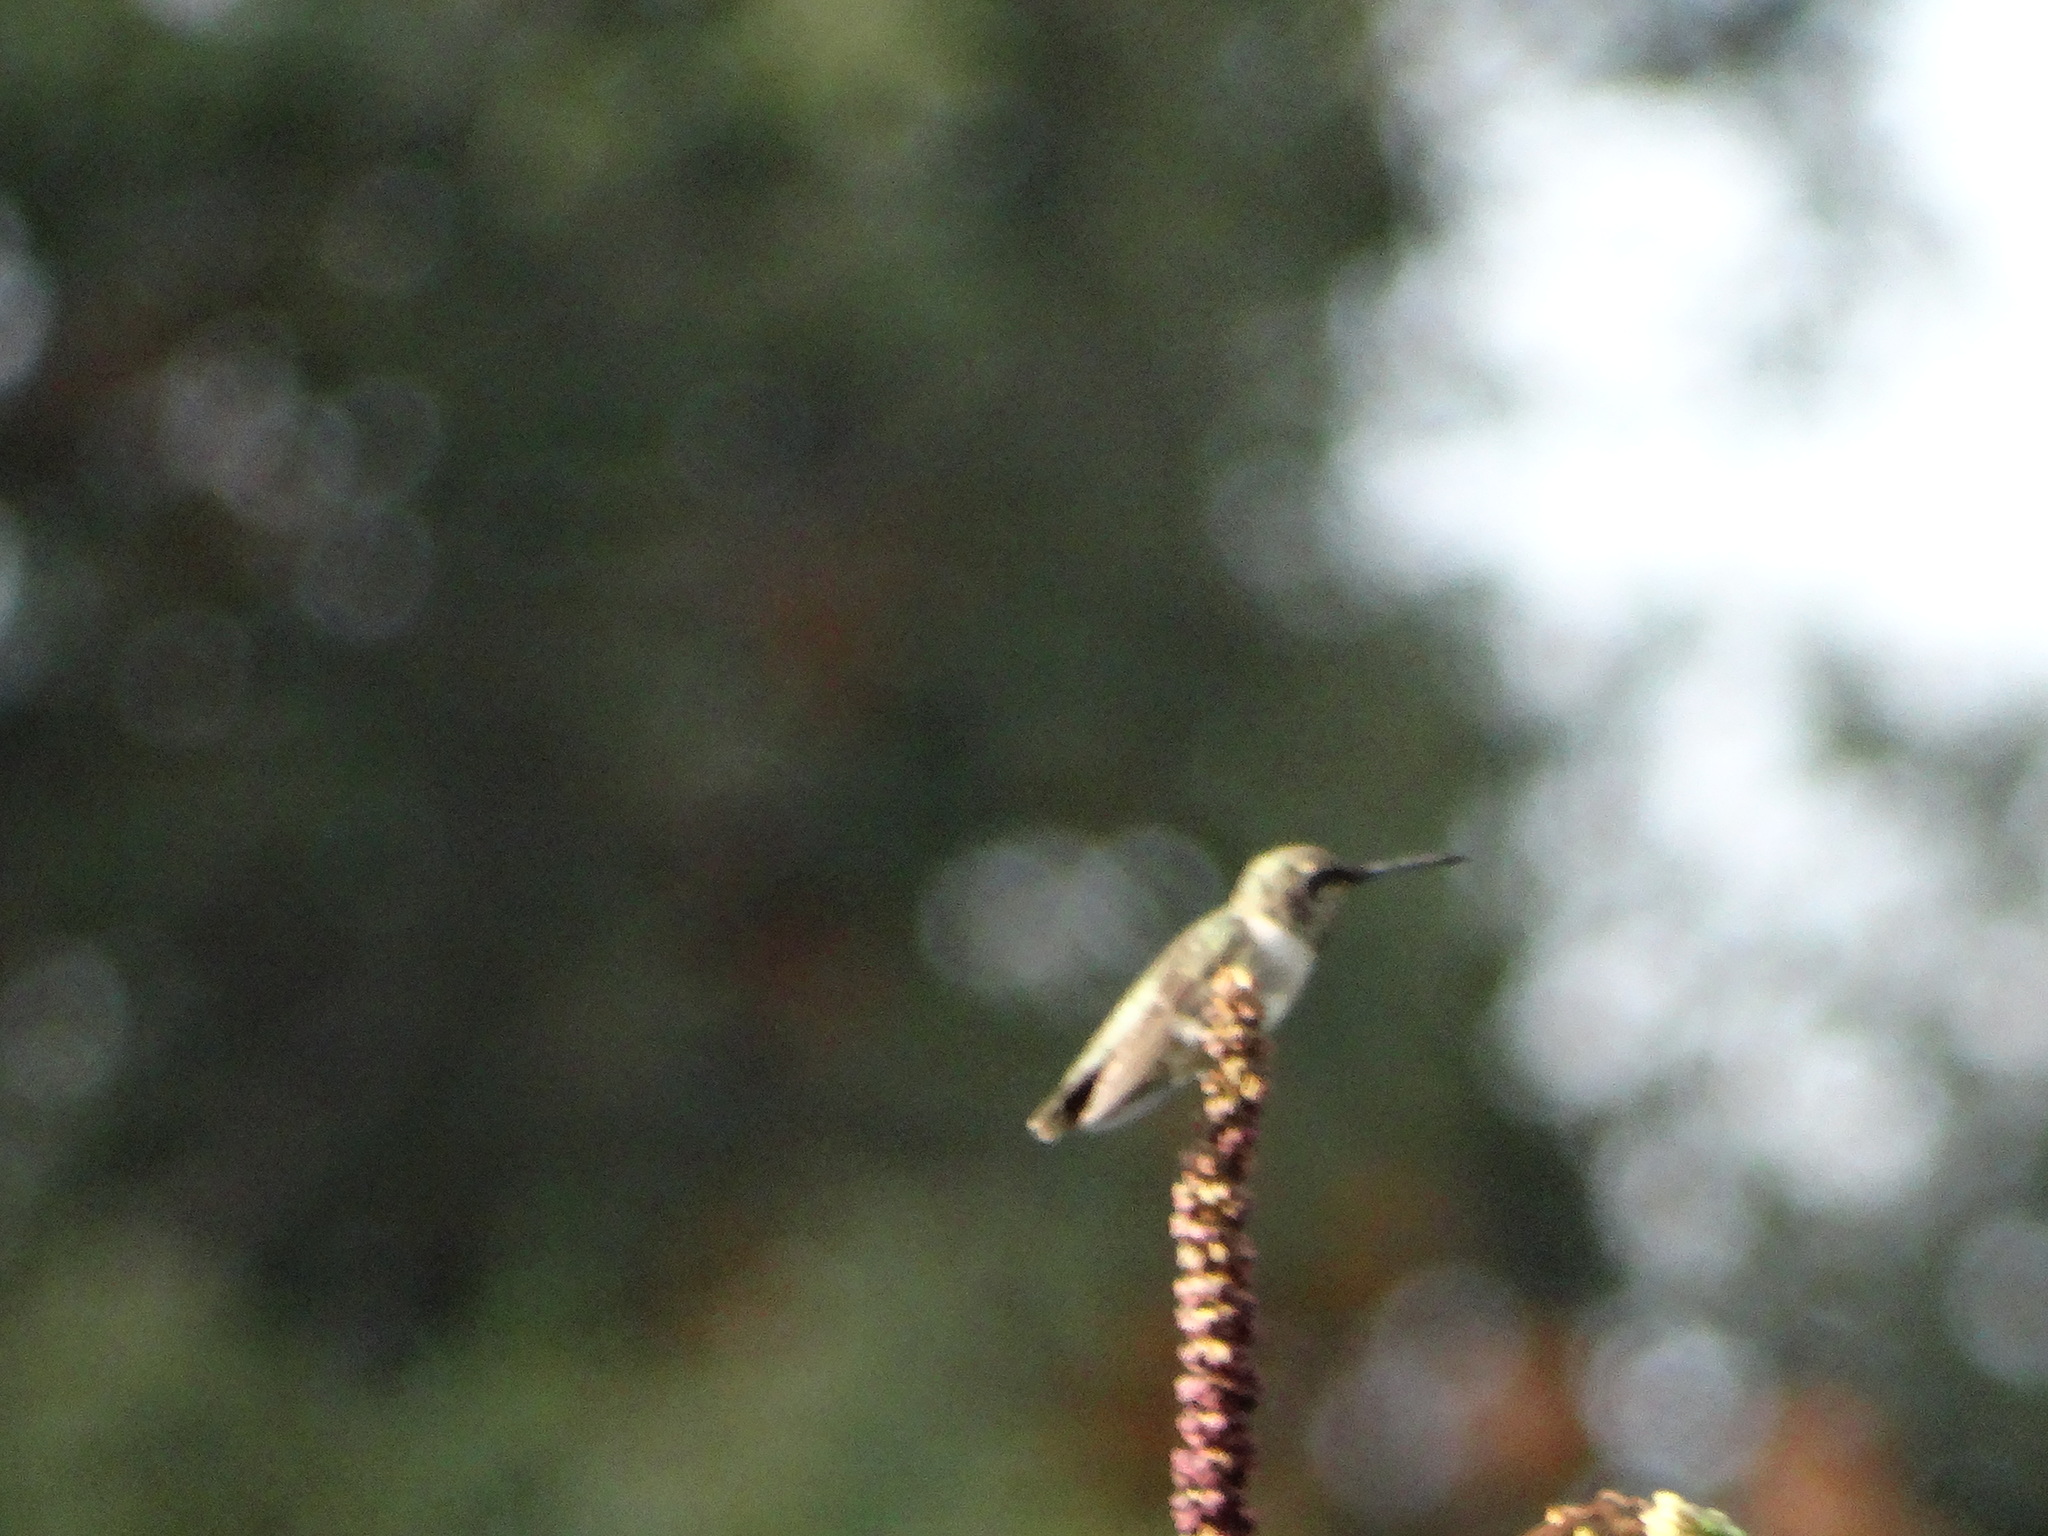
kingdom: Animalia
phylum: Chordata
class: Aves
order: Apodiformes
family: Trochilidae
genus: Archilochus
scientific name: Archilochus colubris
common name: Ruby-throated hummingbird
